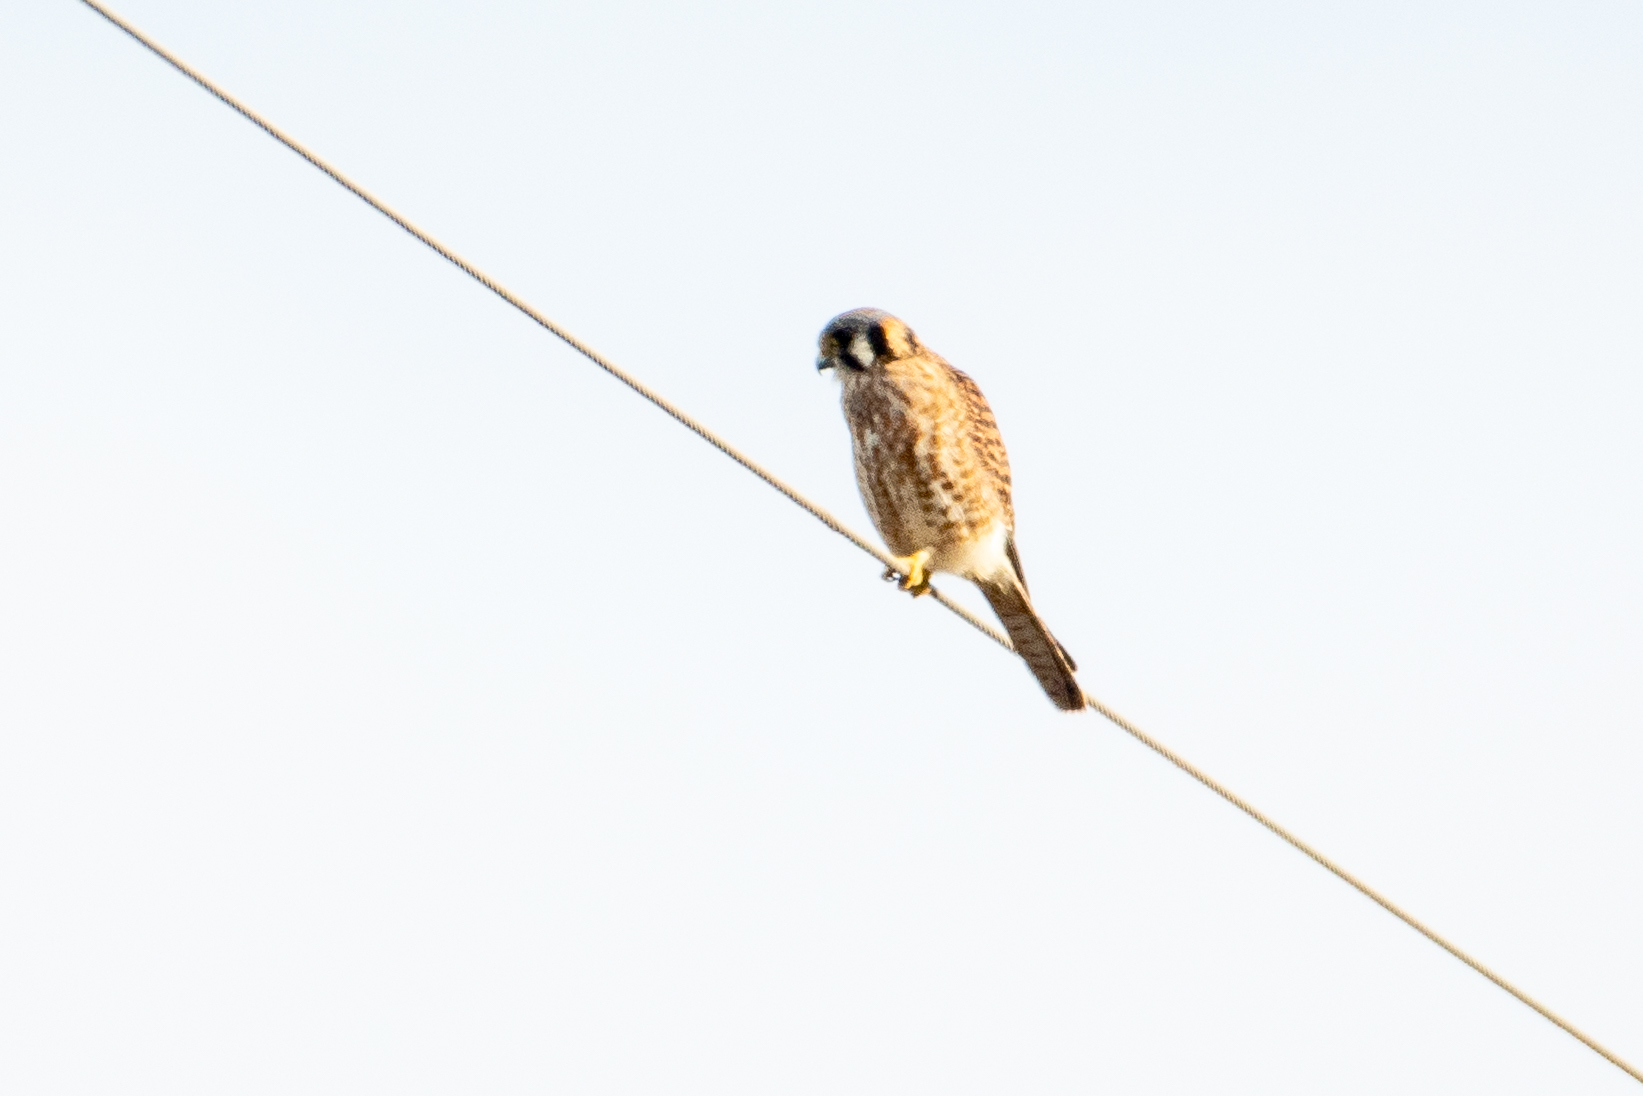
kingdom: Animalia
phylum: Chordata
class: Aves
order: Falconiformes
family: Falconidae
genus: Falco
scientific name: Falco sparverius
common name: American kestrel
